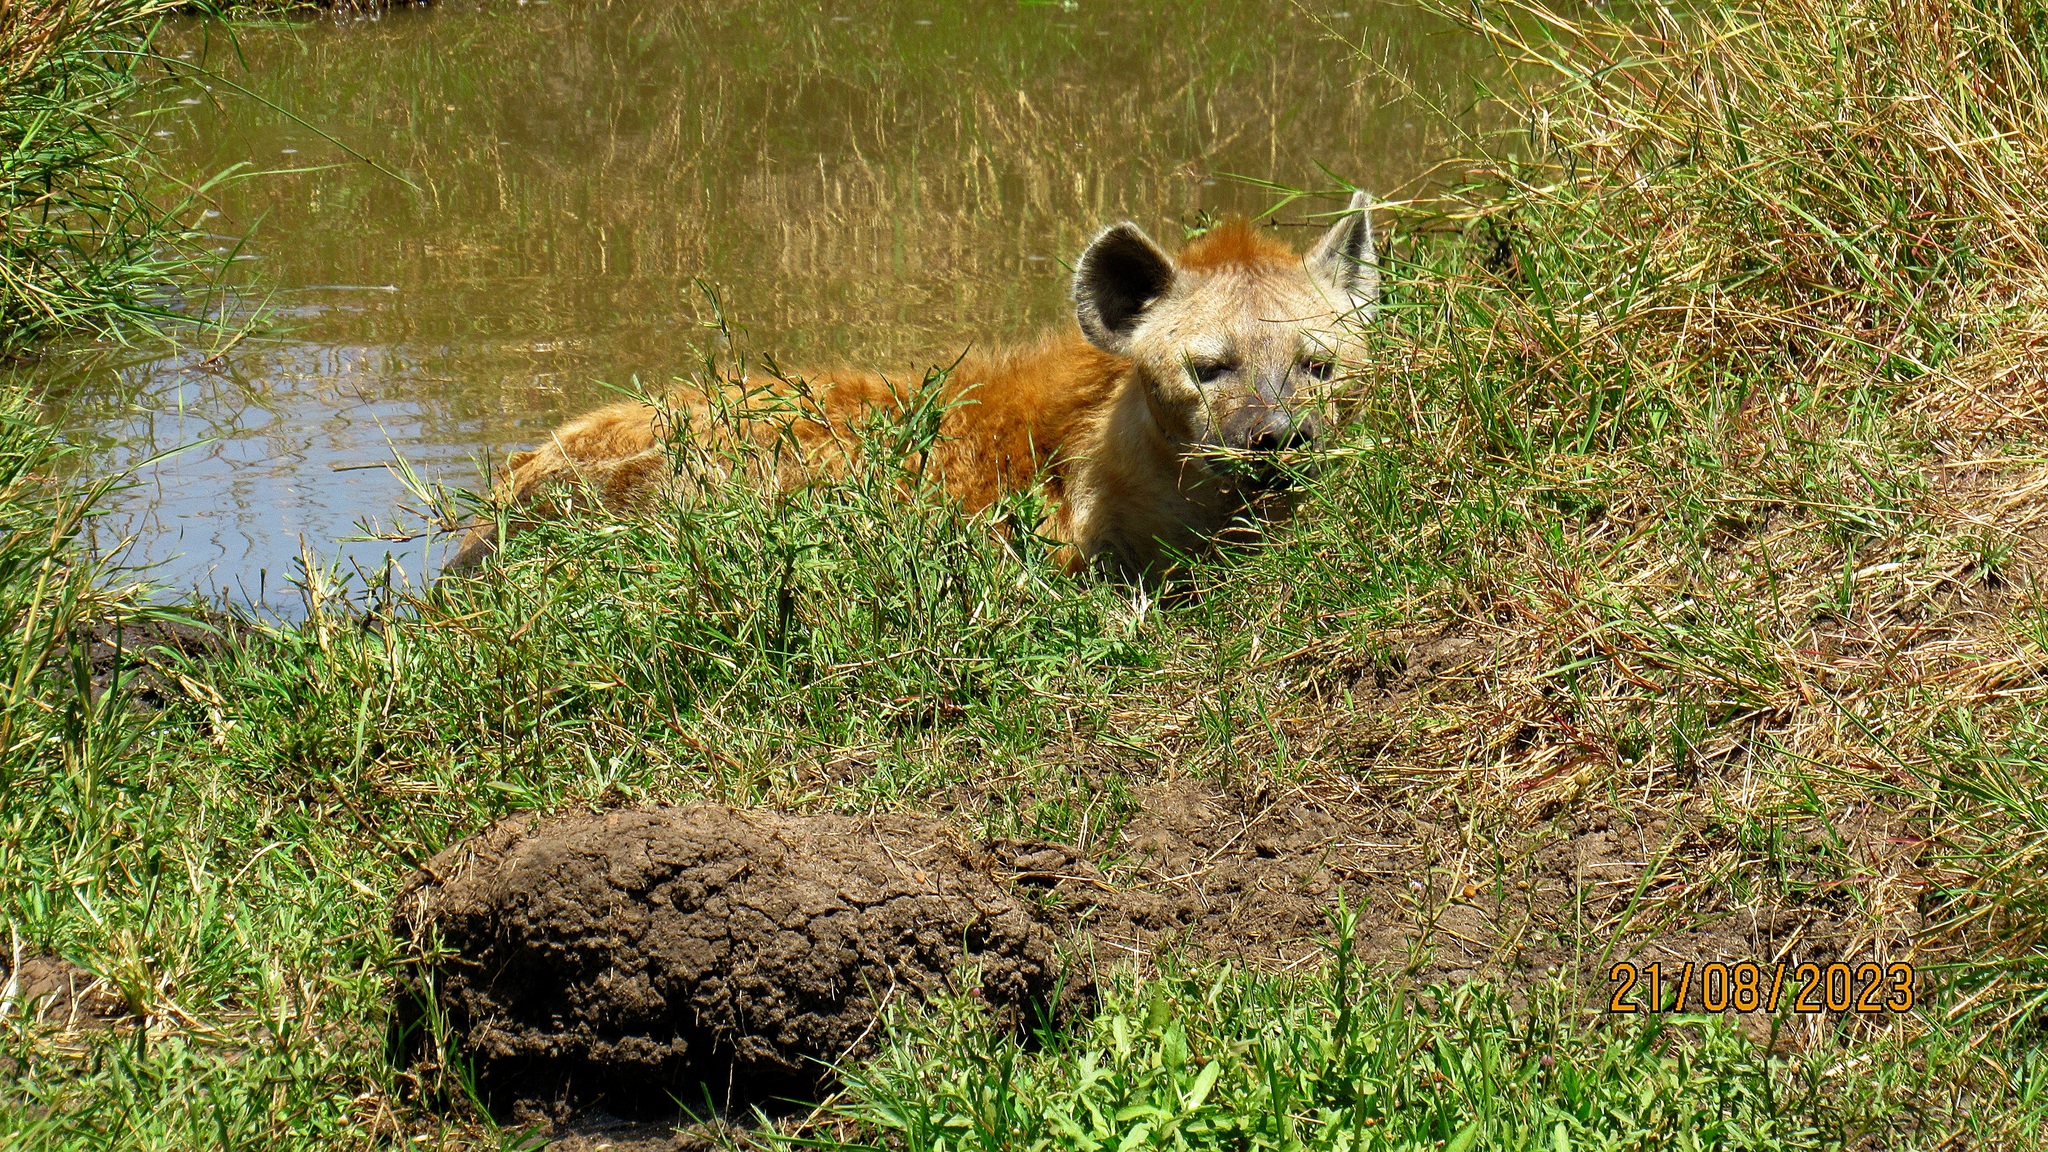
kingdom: Animalia
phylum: Chordata
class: Mammalia
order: Carnivora
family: Hyaenidae
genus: Crocuta
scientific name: Crocuta crocuta
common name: Spotted hyaena
